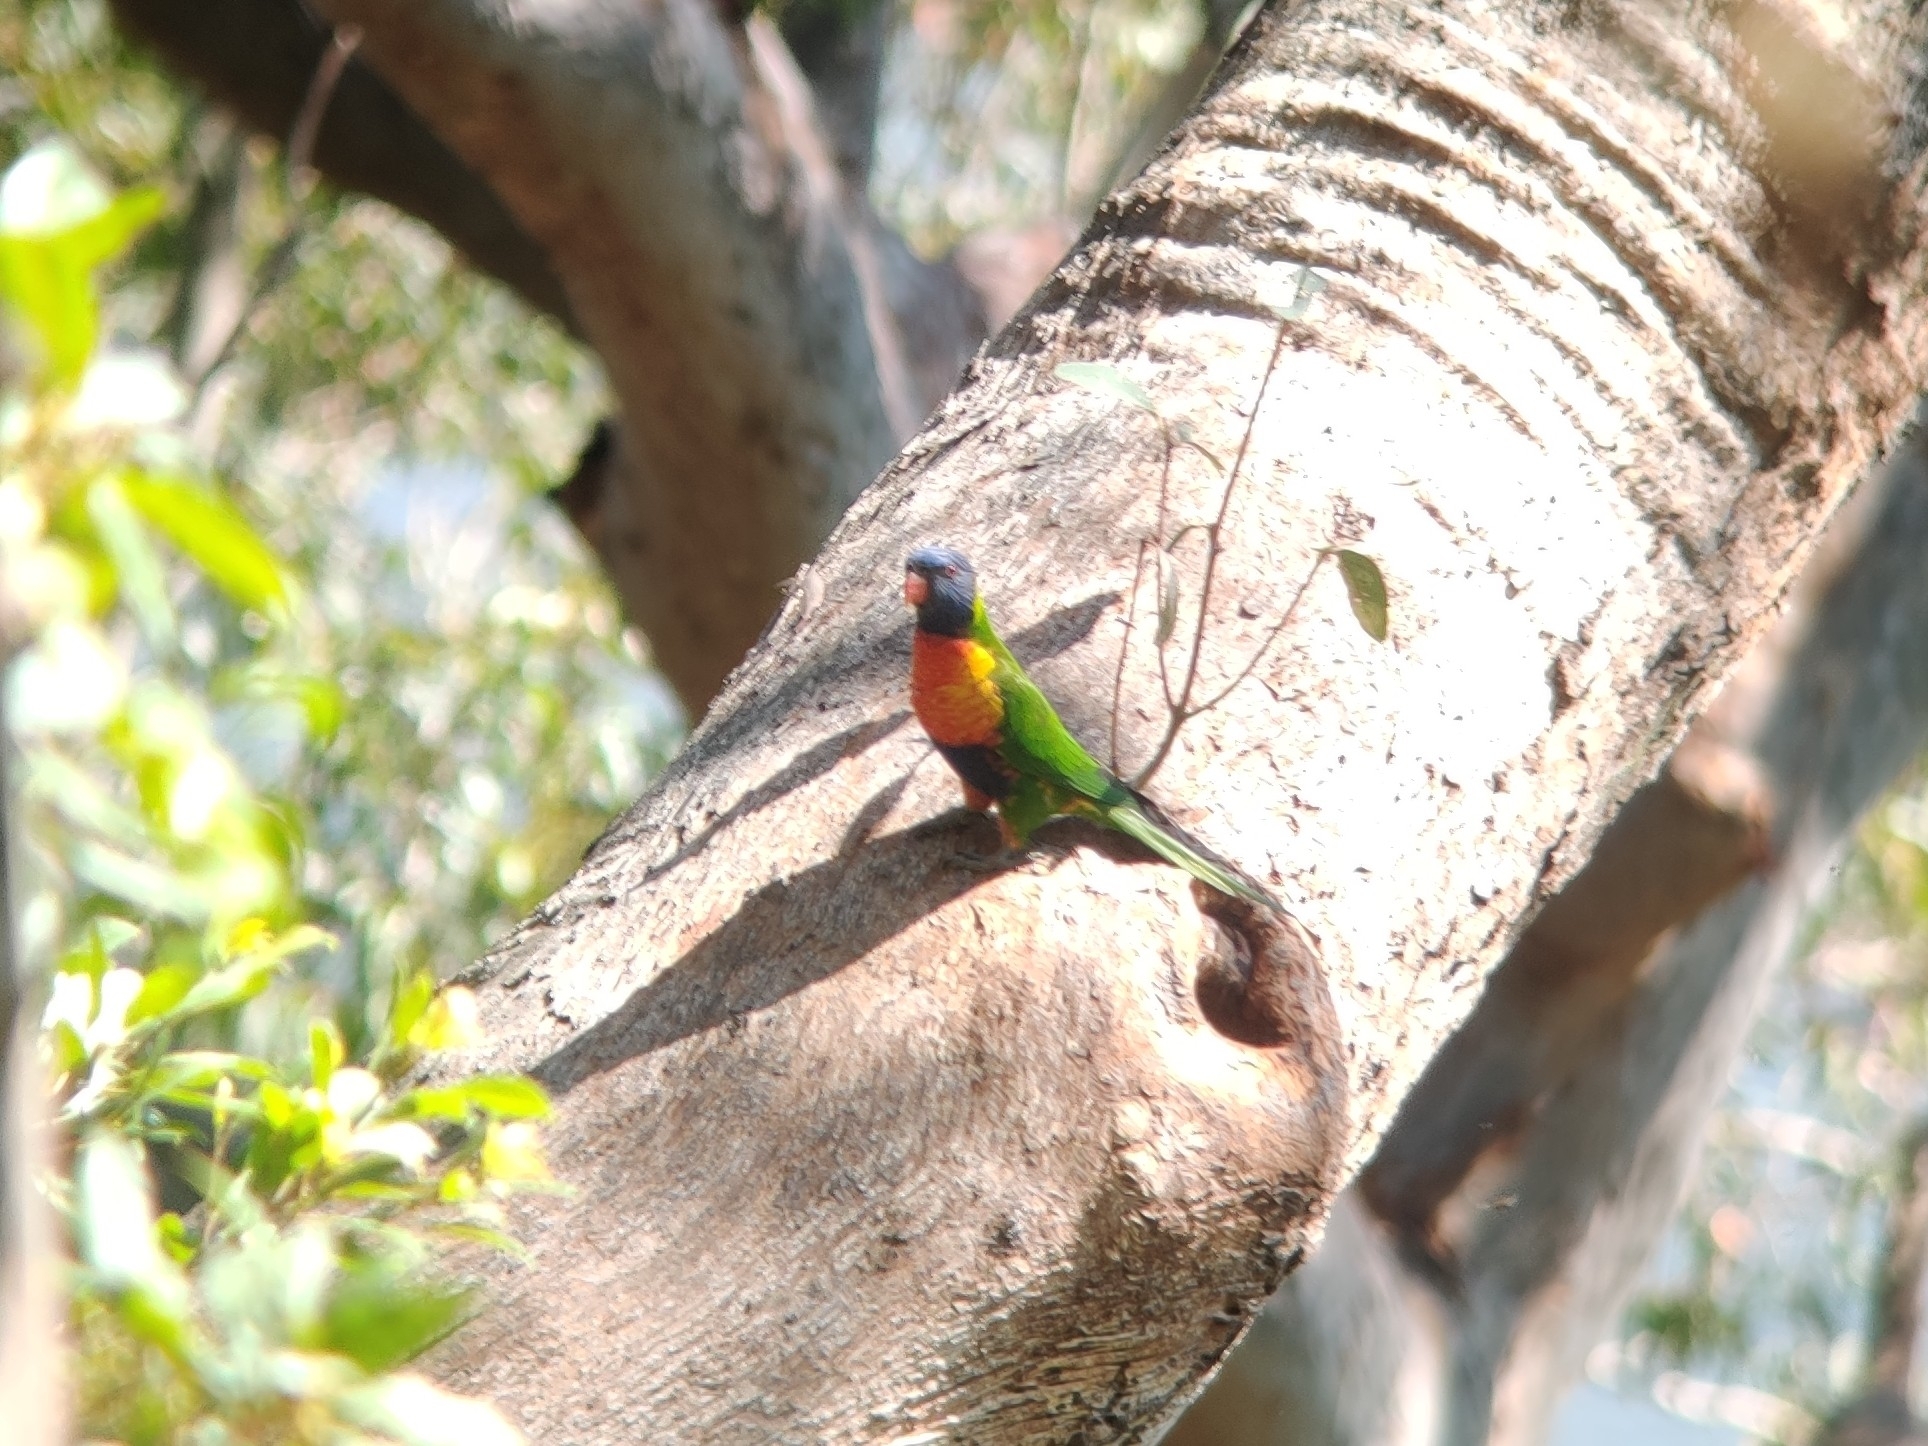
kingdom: Animalia
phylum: Chordata
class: Aves
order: Psittaciformes
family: Psittacidae
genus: Trichoglossus
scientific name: Trichoglossus haematodus
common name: Coconut lorikeet
